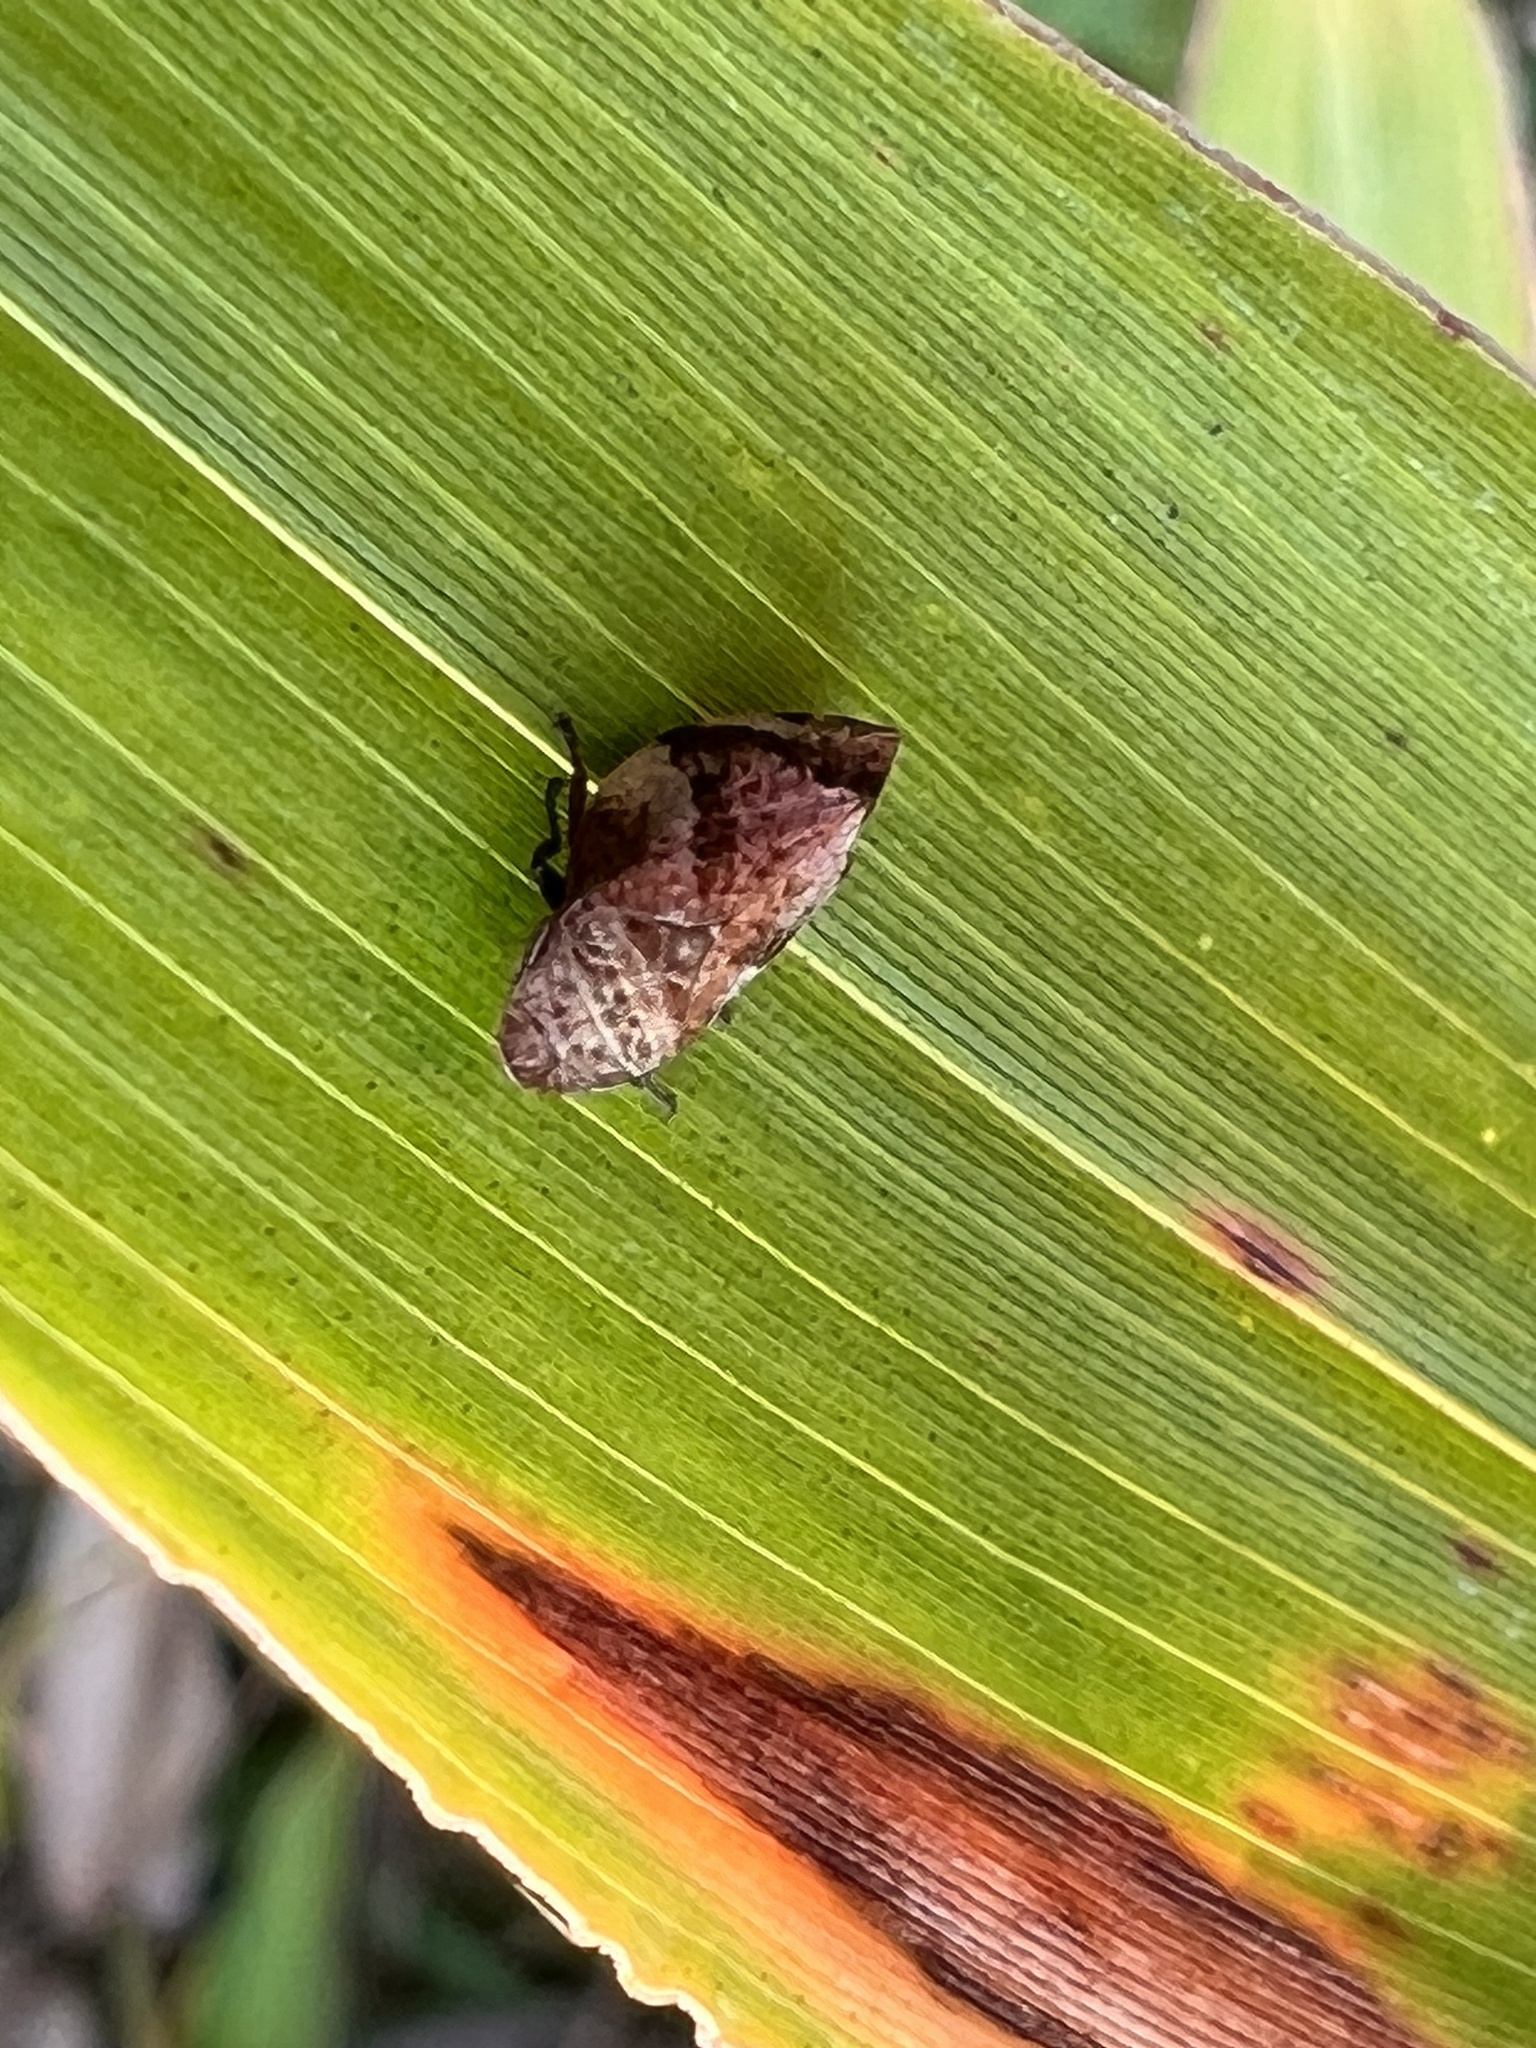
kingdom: Animalia
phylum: Arthropoda
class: Insecta
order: Hemiptera
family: Aphrophoridae
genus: Lepyronia
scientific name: Lepyronia quadrangularis
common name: Diamond-backed spittlebug
